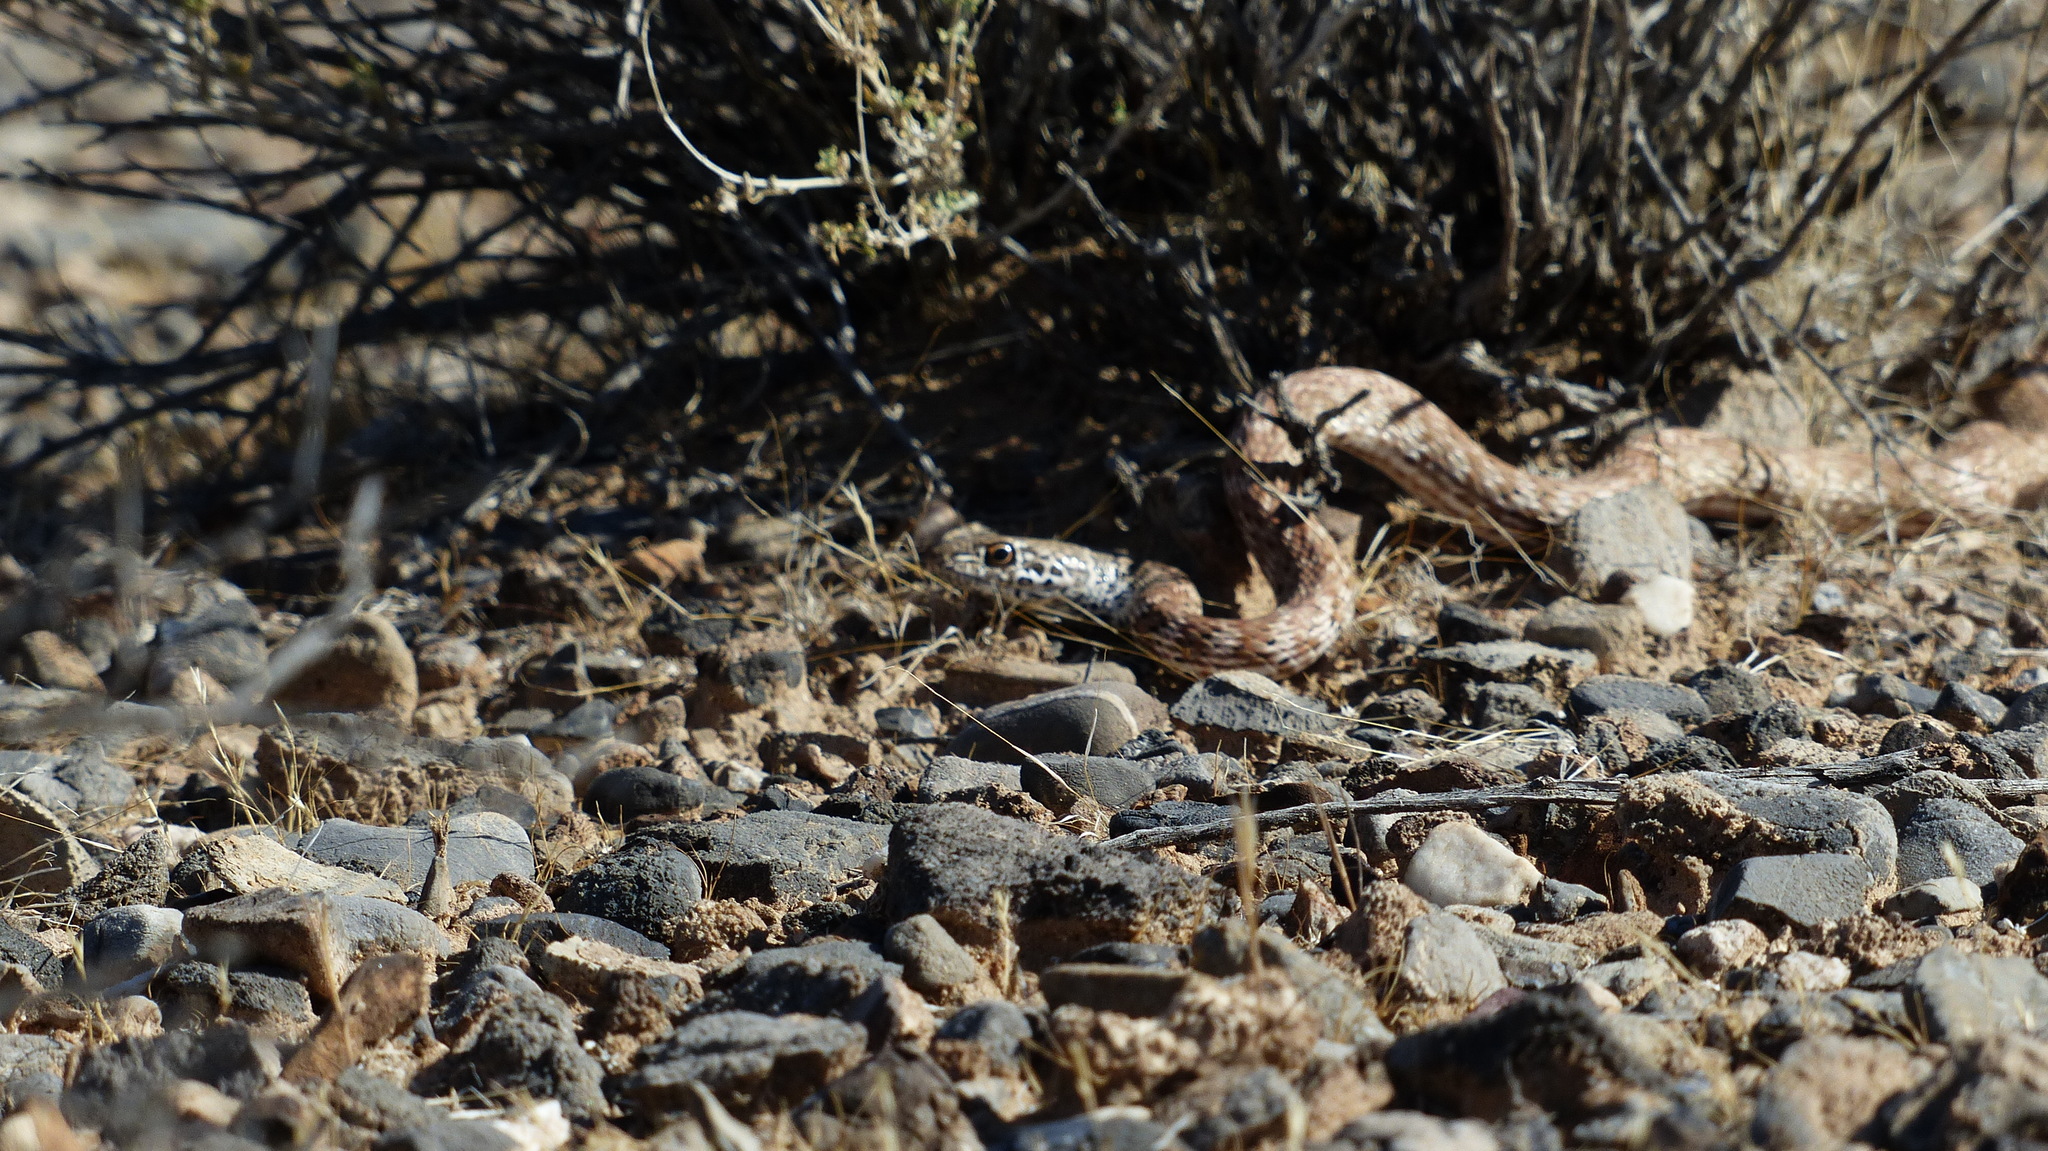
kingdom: Animalia
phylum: Chordata
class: Squamata
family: Colubridae
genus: Masticophis
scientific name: Masticophis flagellum
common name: Coachwhip
